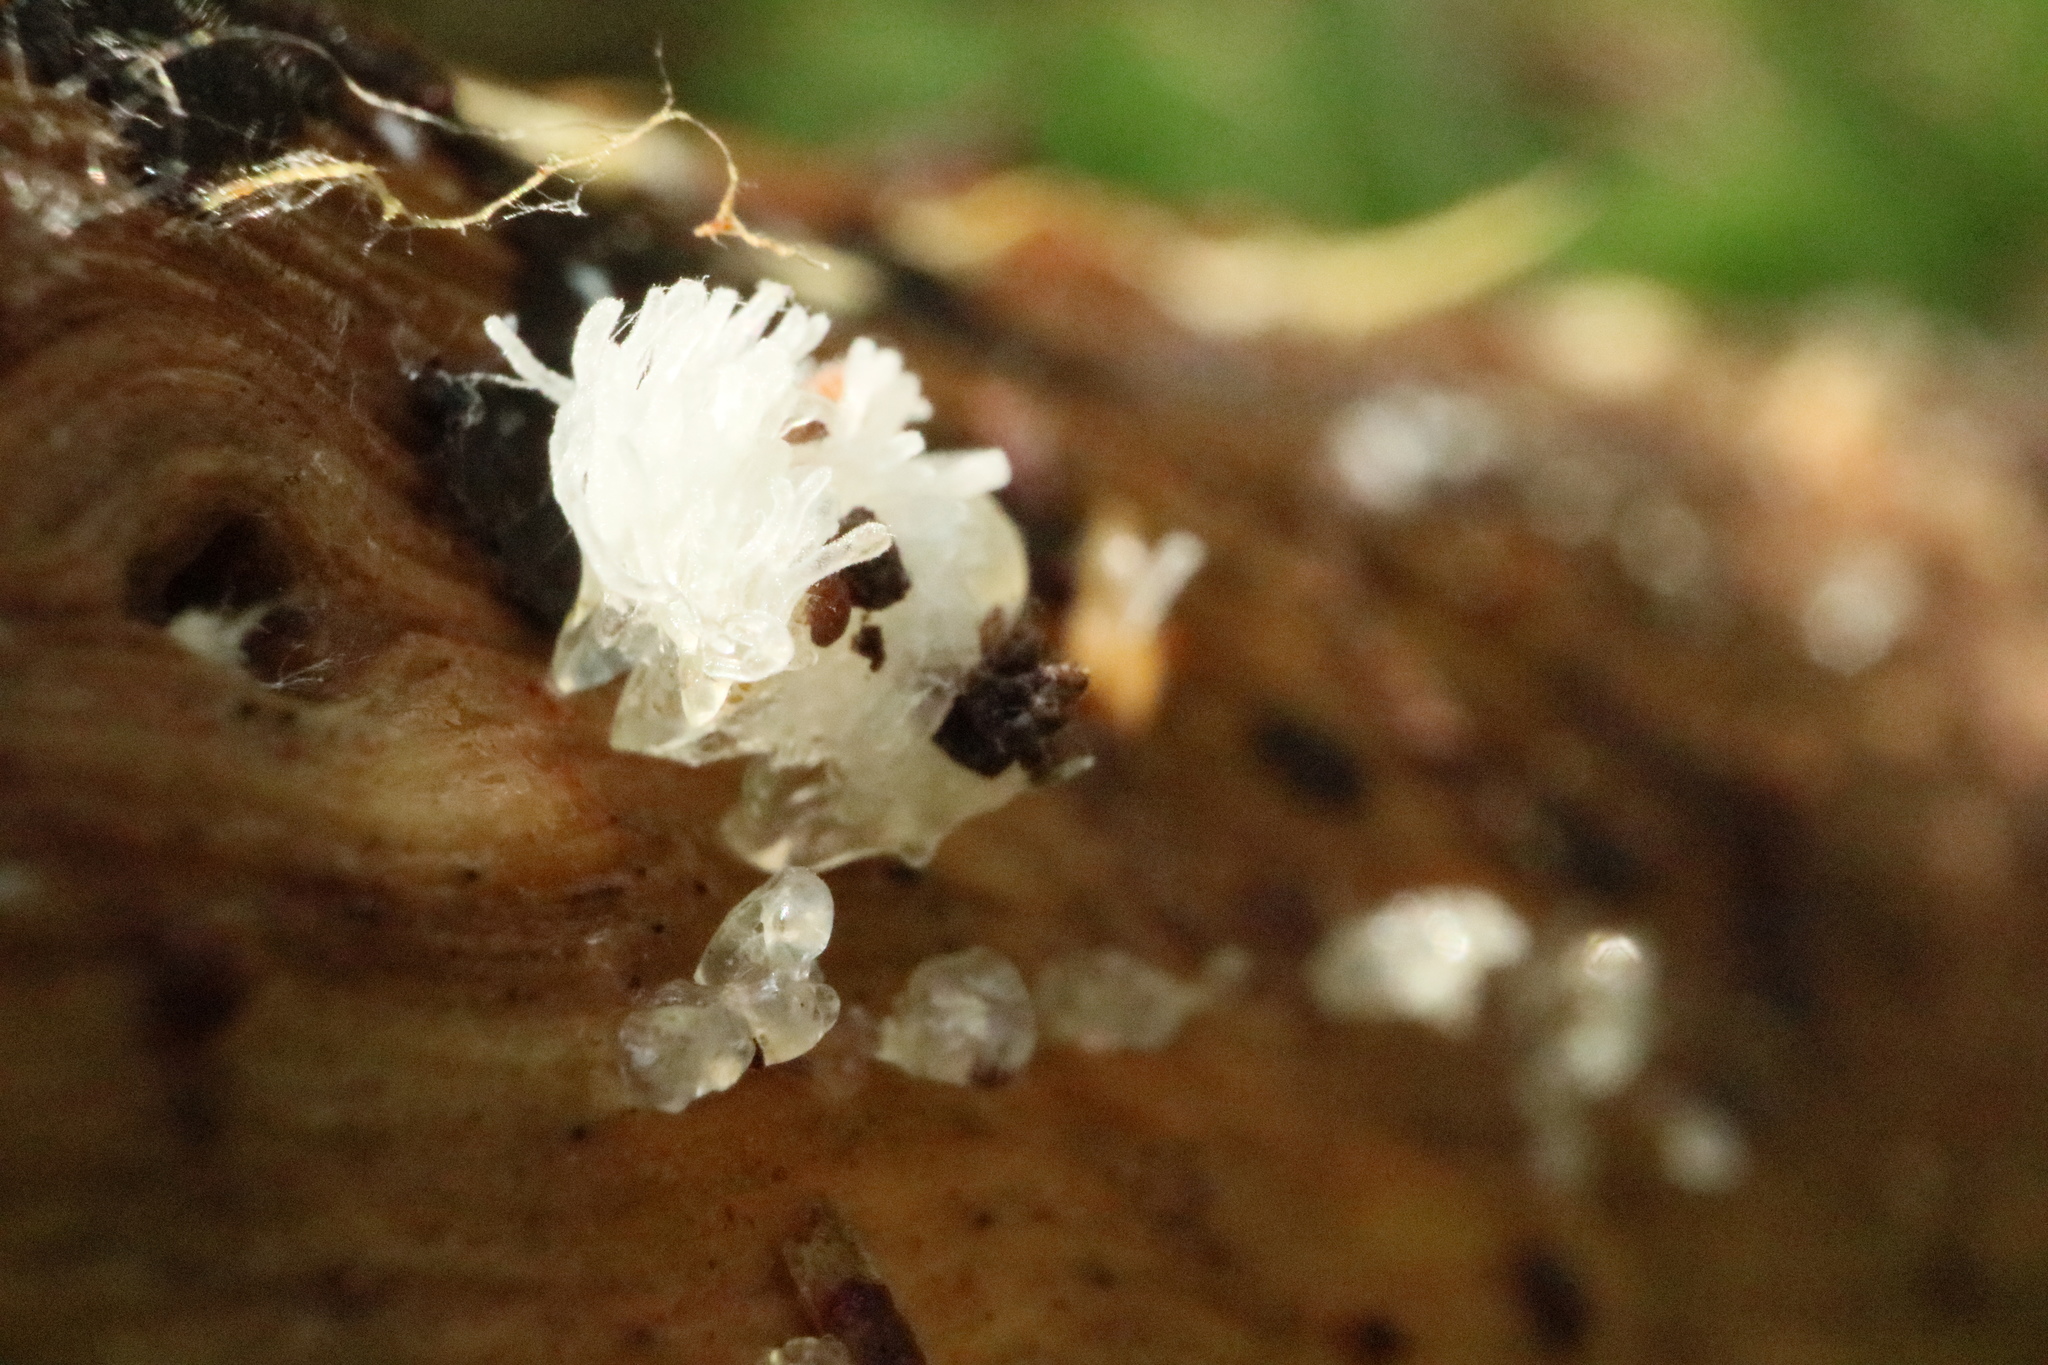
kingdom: Protozoa
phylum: Mycetozoa
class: Protosteliomycetes
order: Ceratiomyxales
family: Ceratiomyxaceae
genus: Ceratiomyxa
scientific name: Ceratiomyxa fruticulosa
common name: Honeycomb coral slime mold
